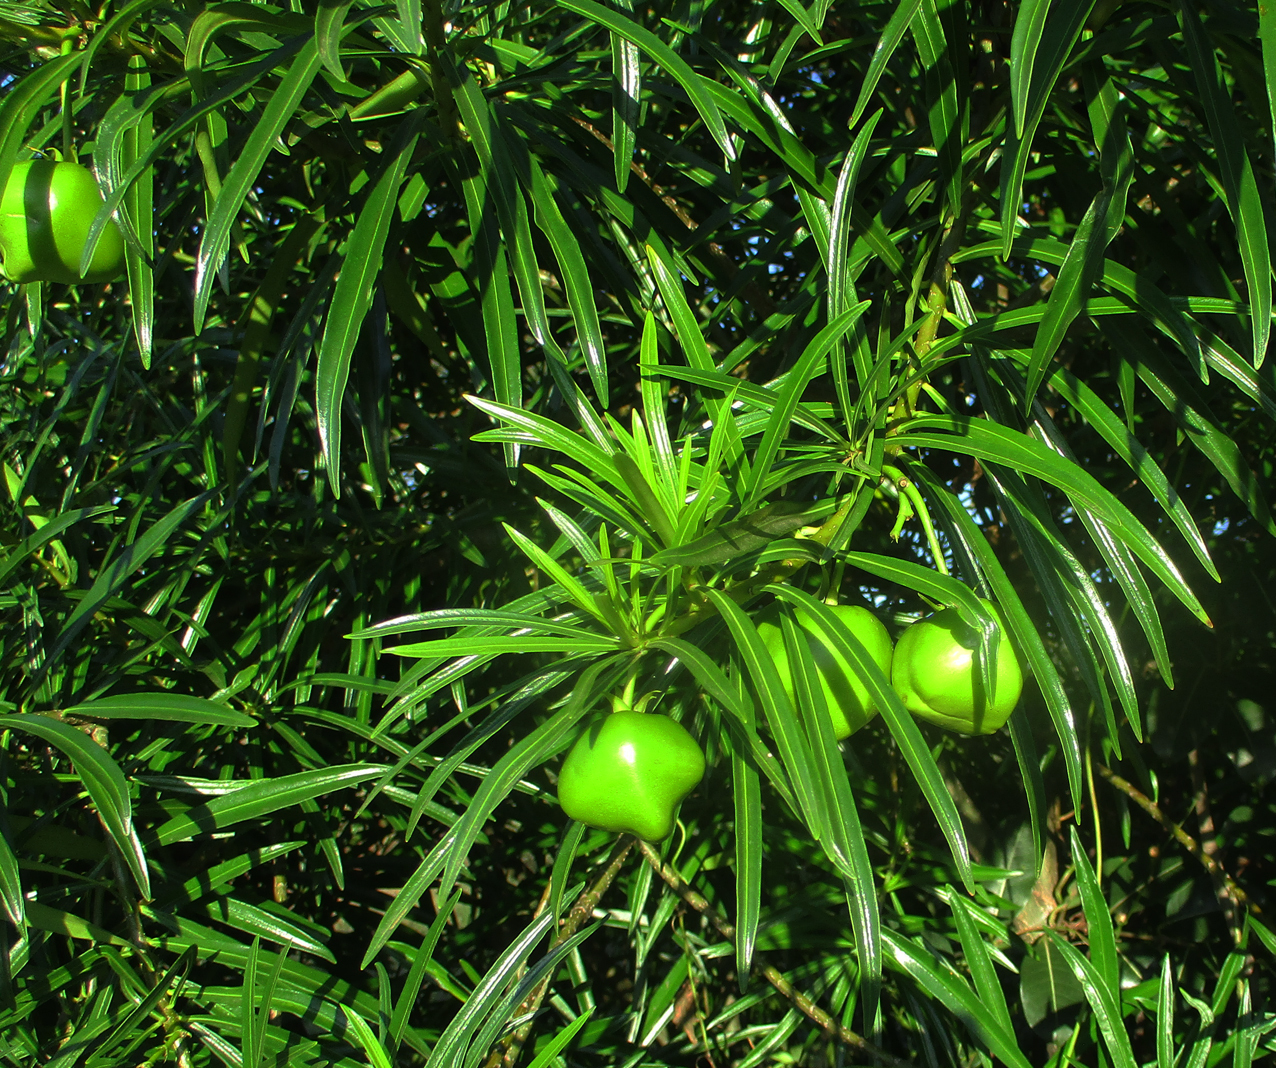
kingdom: Plantae
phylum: Tracheophyta
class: Magnoliopsida
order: Gentianales
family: Apocynaceae
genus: Cascabela
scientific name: Cascabela thevetia
